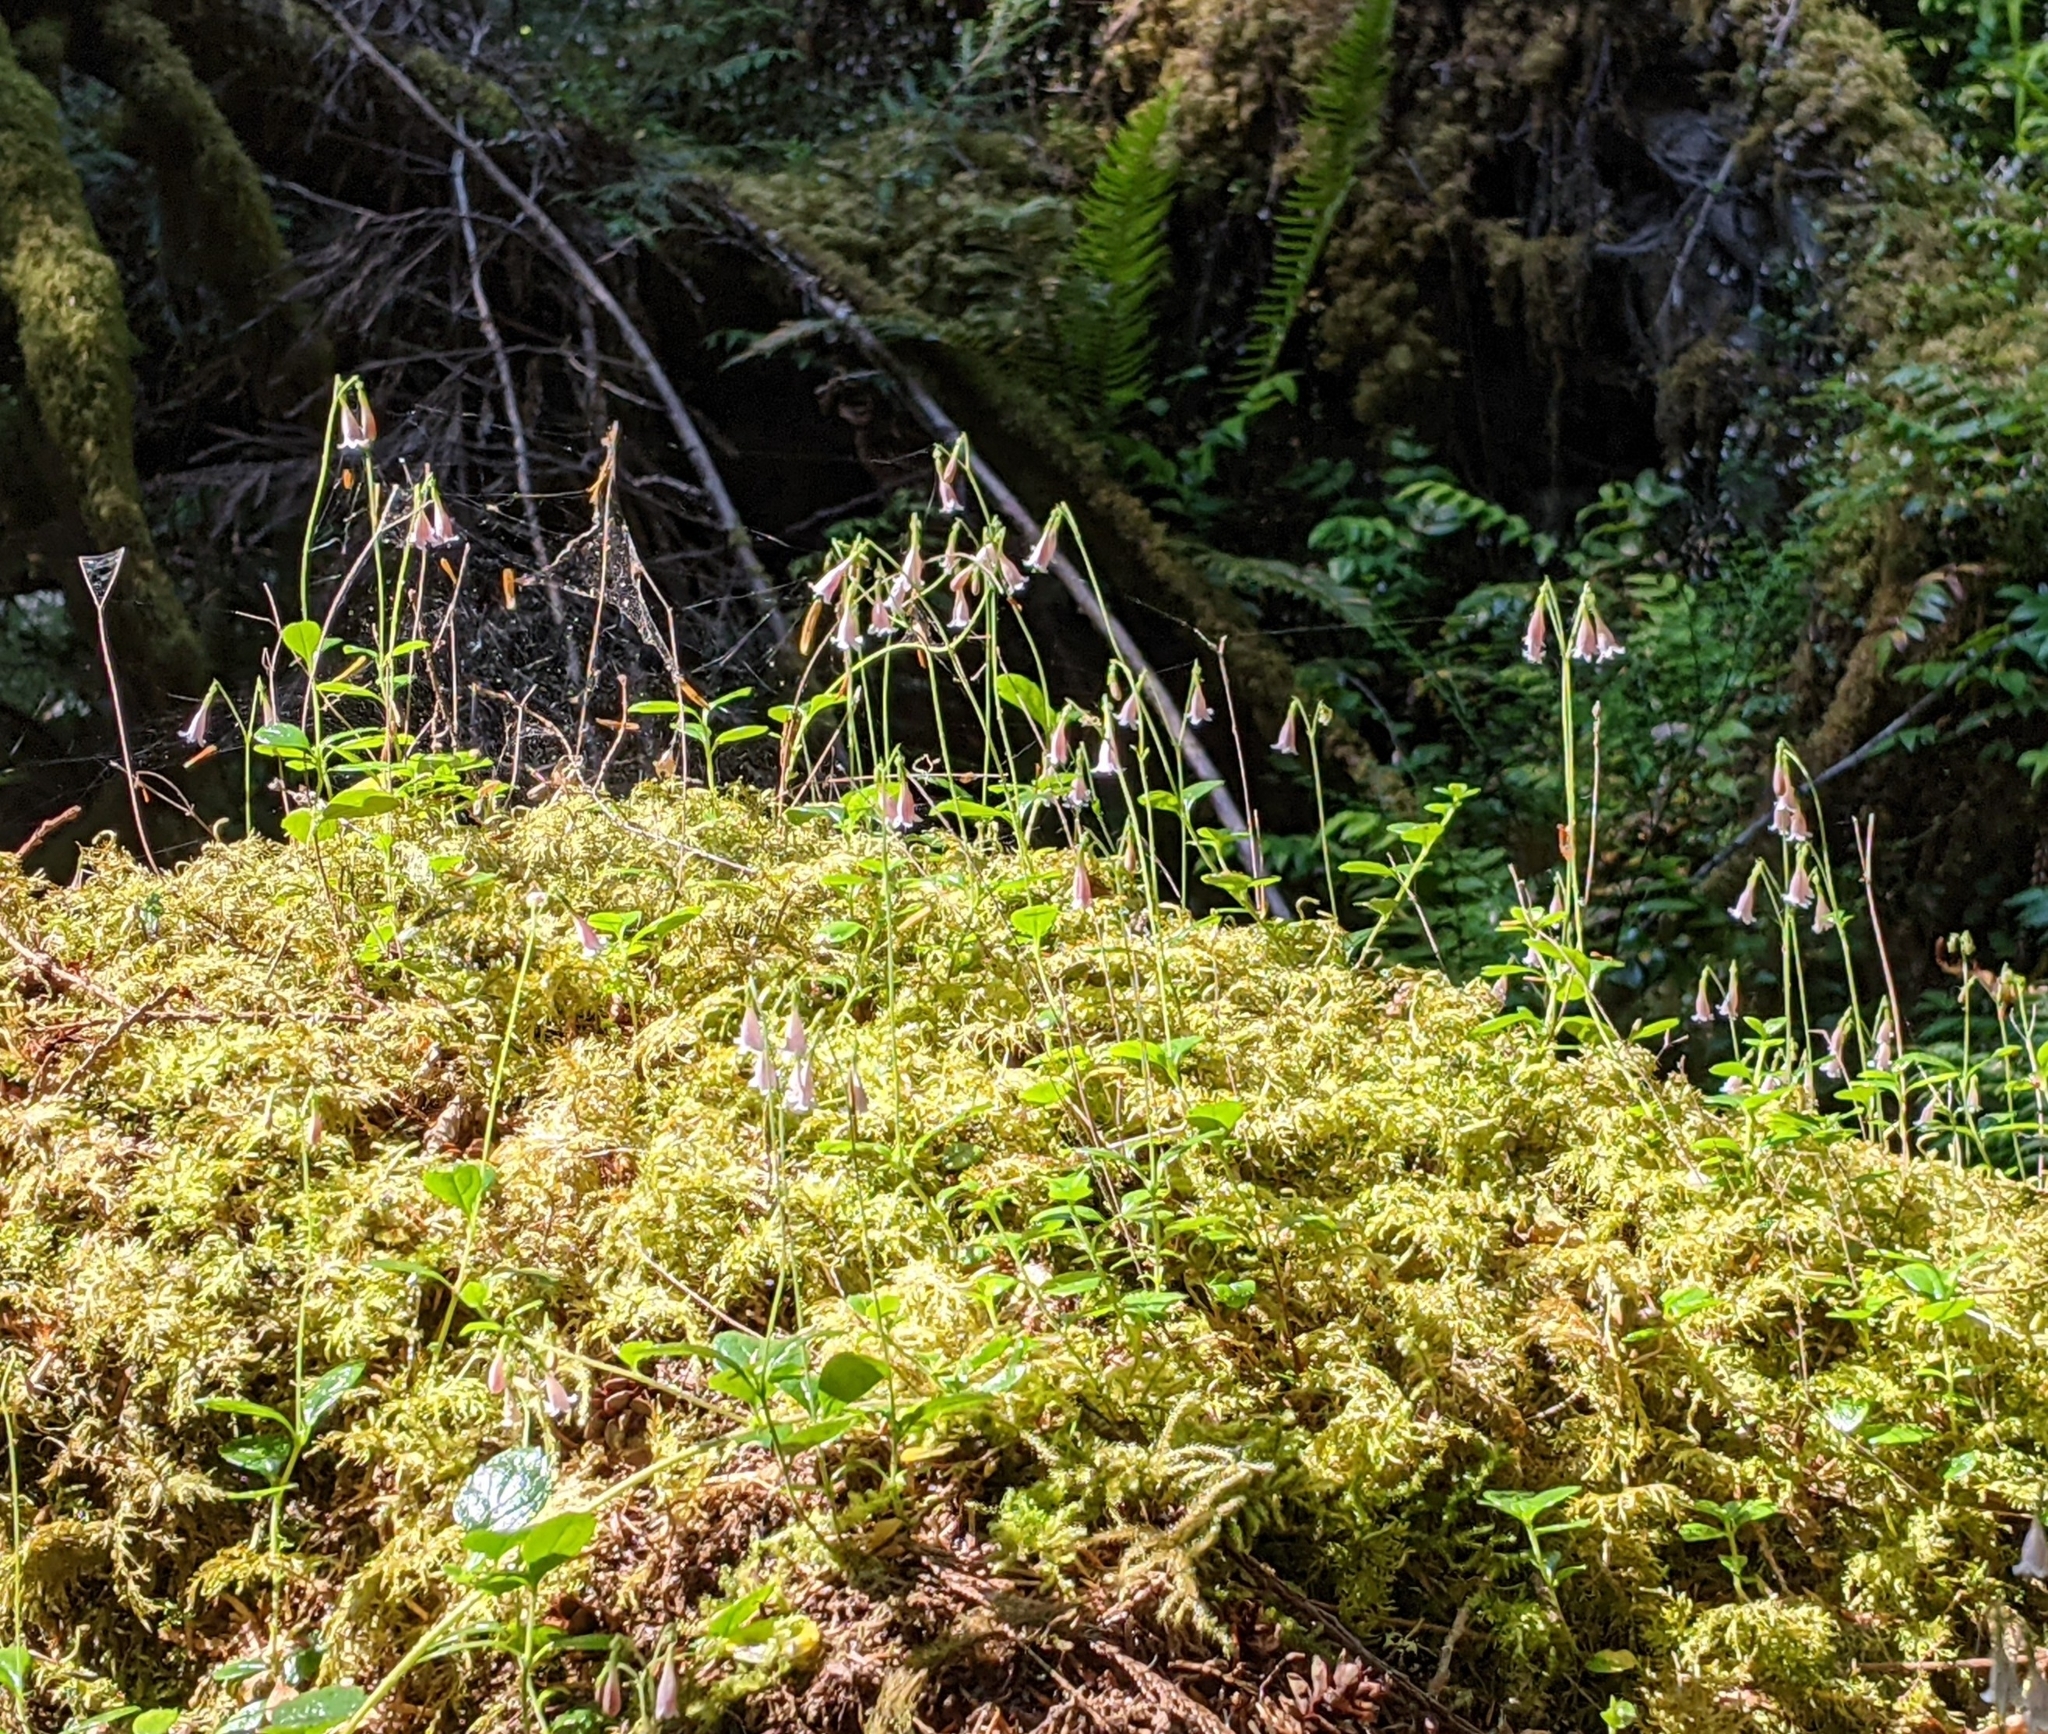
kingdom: Plantae
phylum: Tracheophyta
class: Magnoliopsida
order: Dipsacales
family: Caprifoliaceae
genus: Linnaea
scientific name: Linnaea borealis
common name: Twinflower
